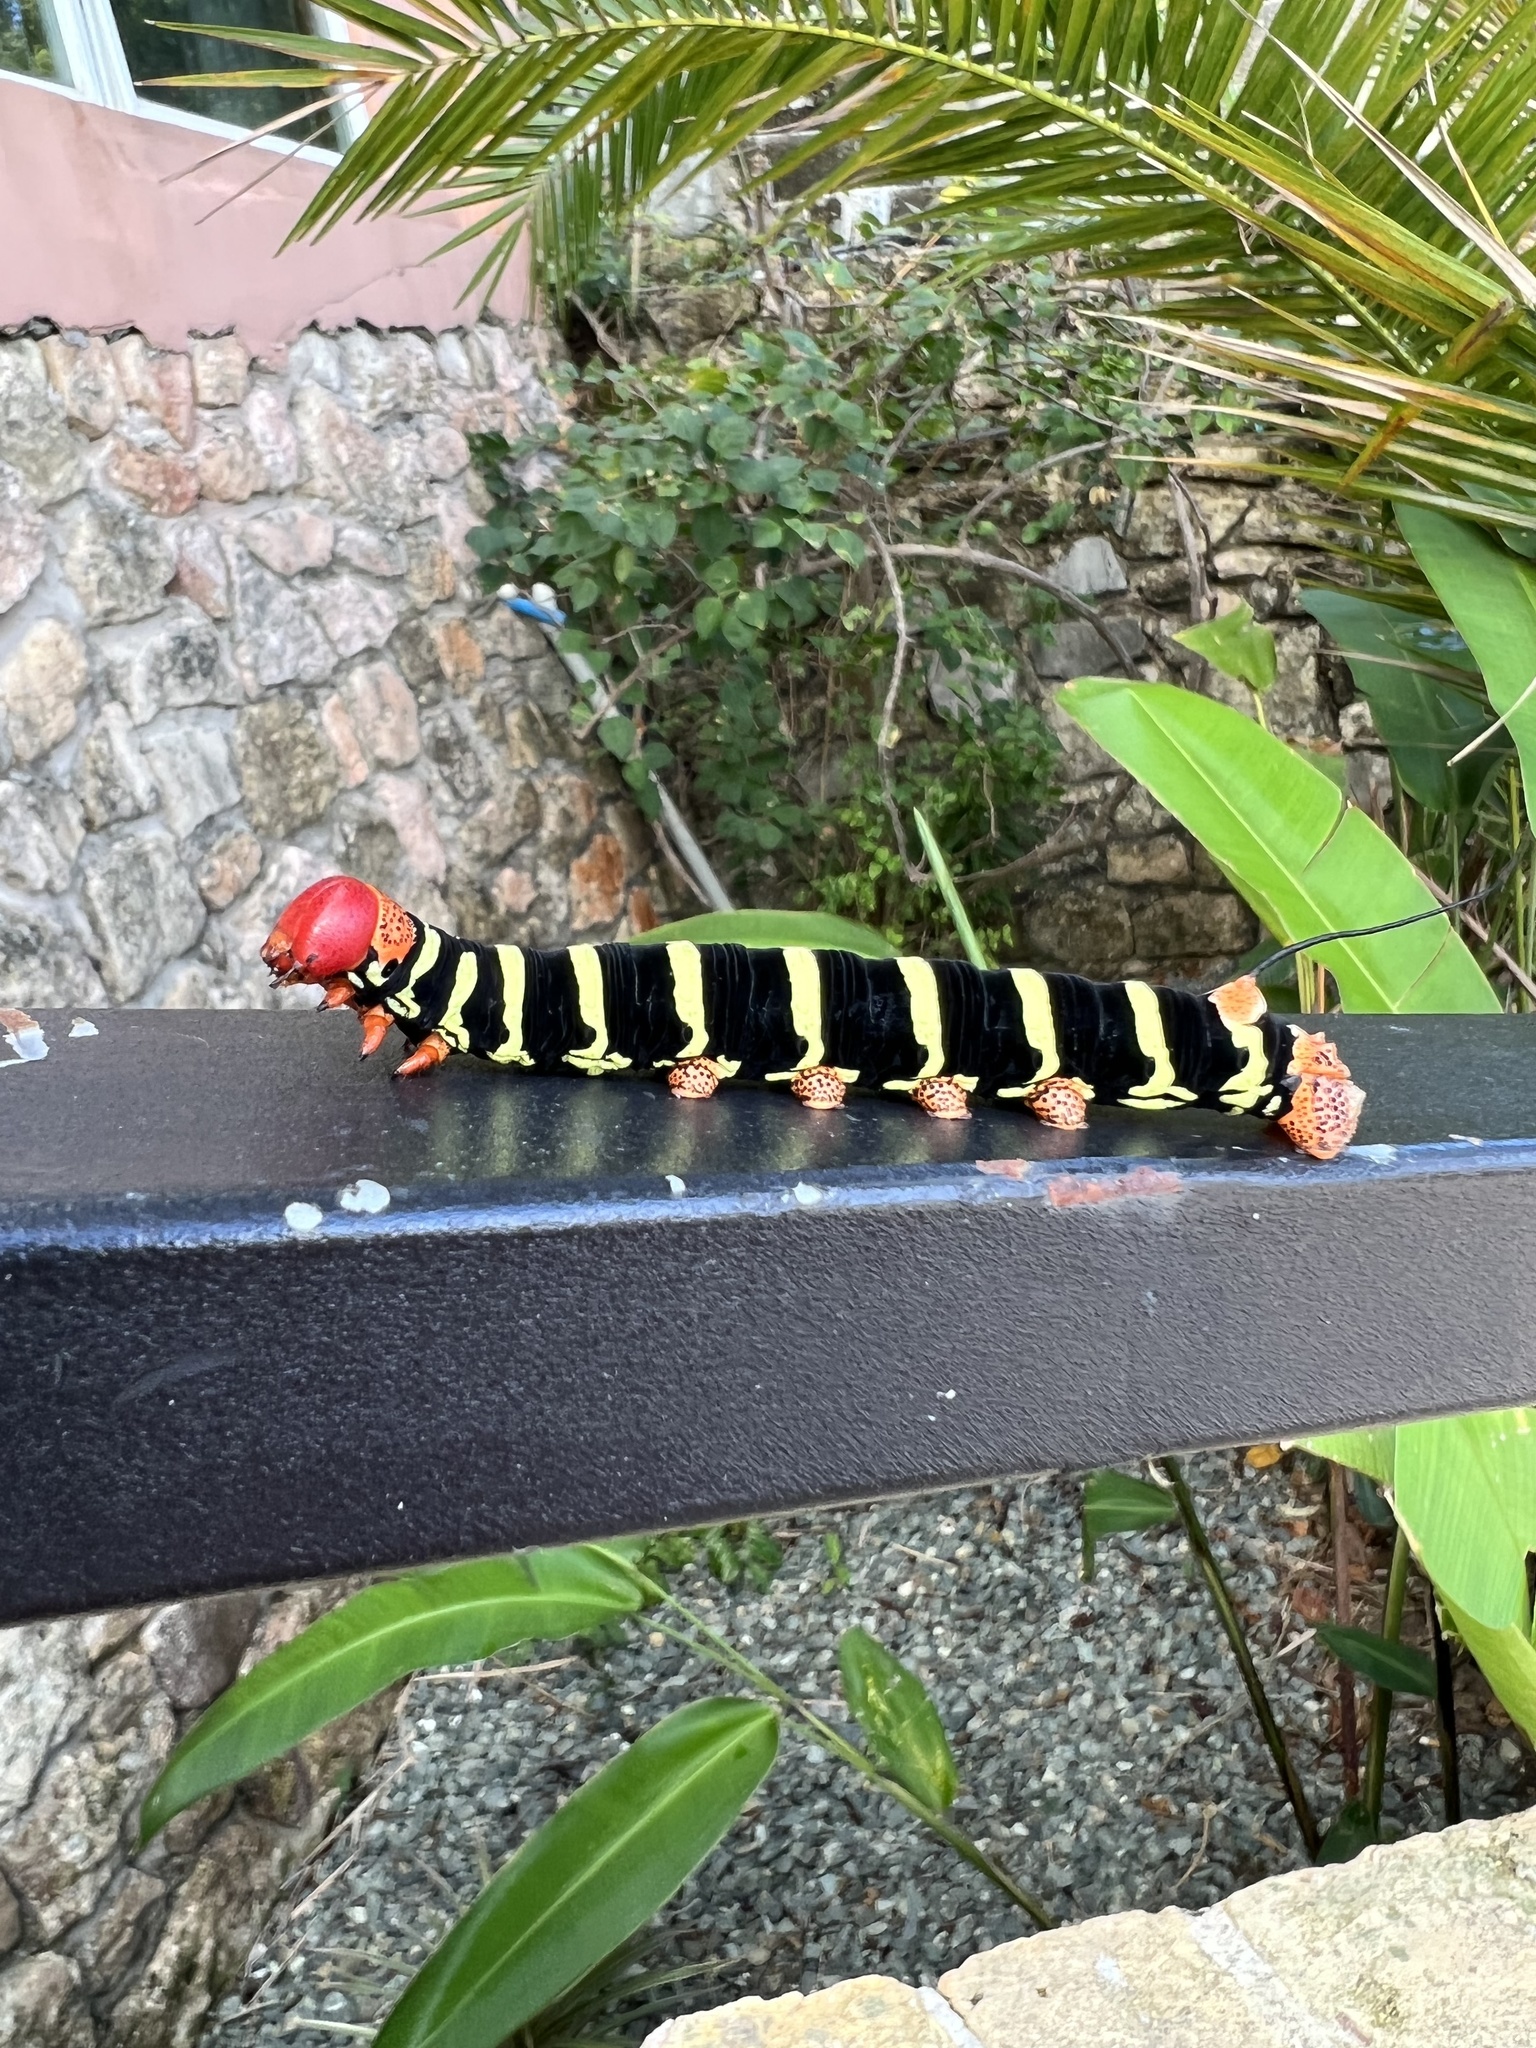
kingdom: Animalia
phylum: Arthropoda
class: Insecta
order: Lepidoptera
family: Sphingidae
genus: Pseudosphinx
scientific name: Pseudosphinx tetrio
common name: Tetrio sphinx
